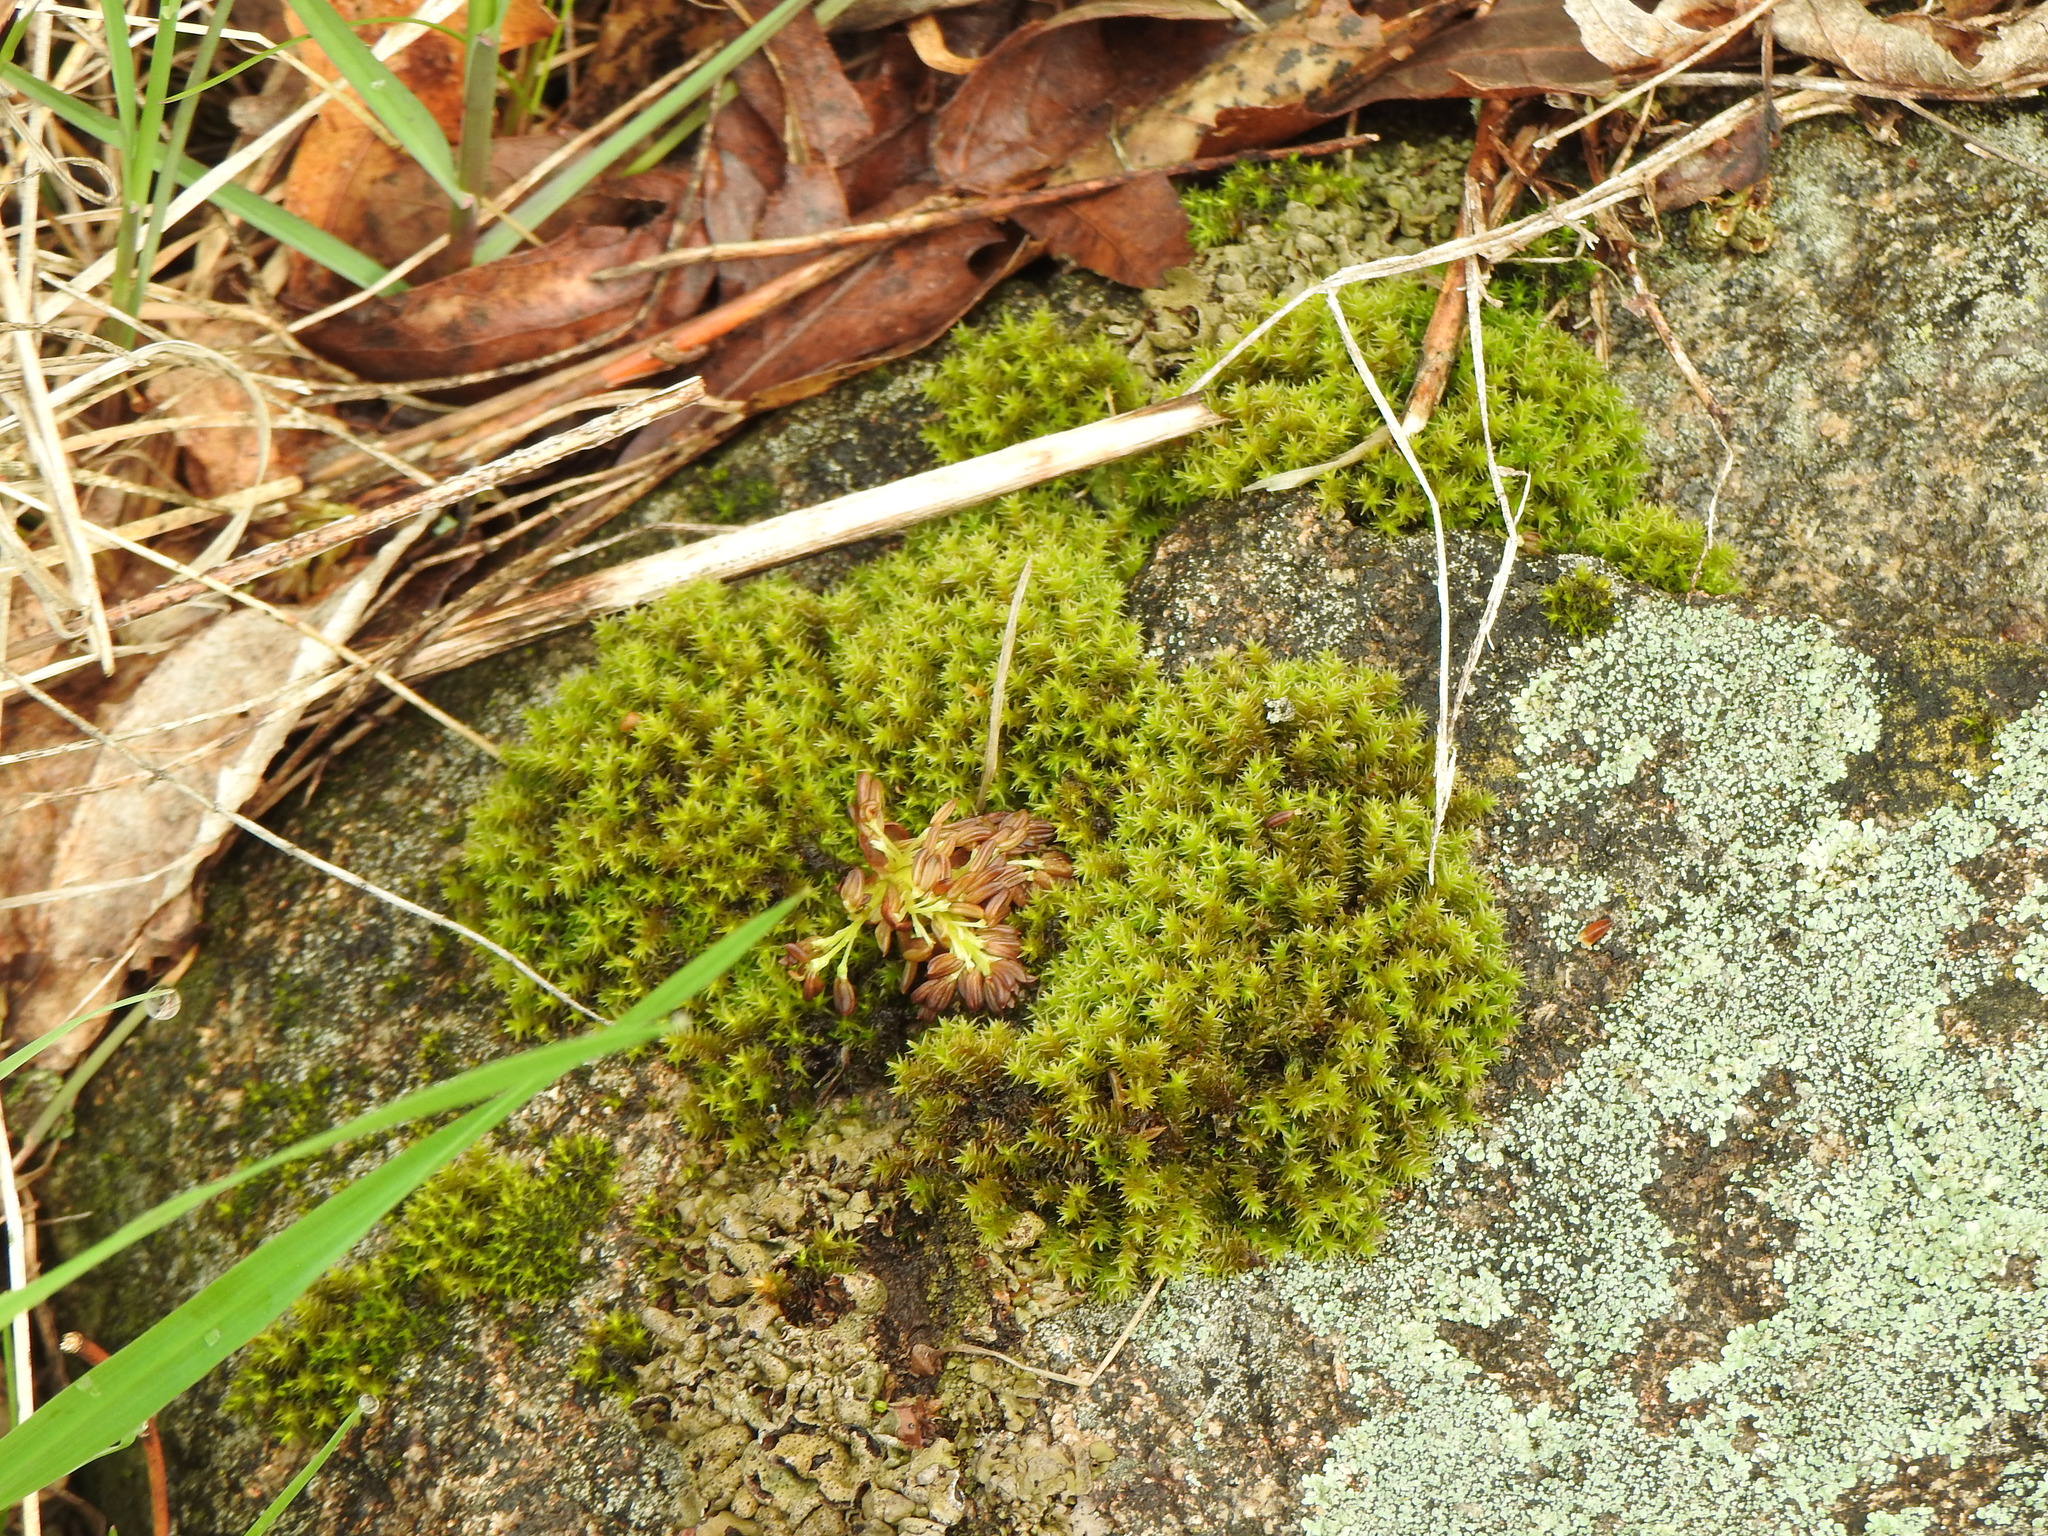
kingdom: Plantae
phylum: Bryophyta
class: Bryopsida
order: Hedwigiales
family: Hedwigiaceae
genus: Hedwigia
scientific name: Hedwigia ciliata
